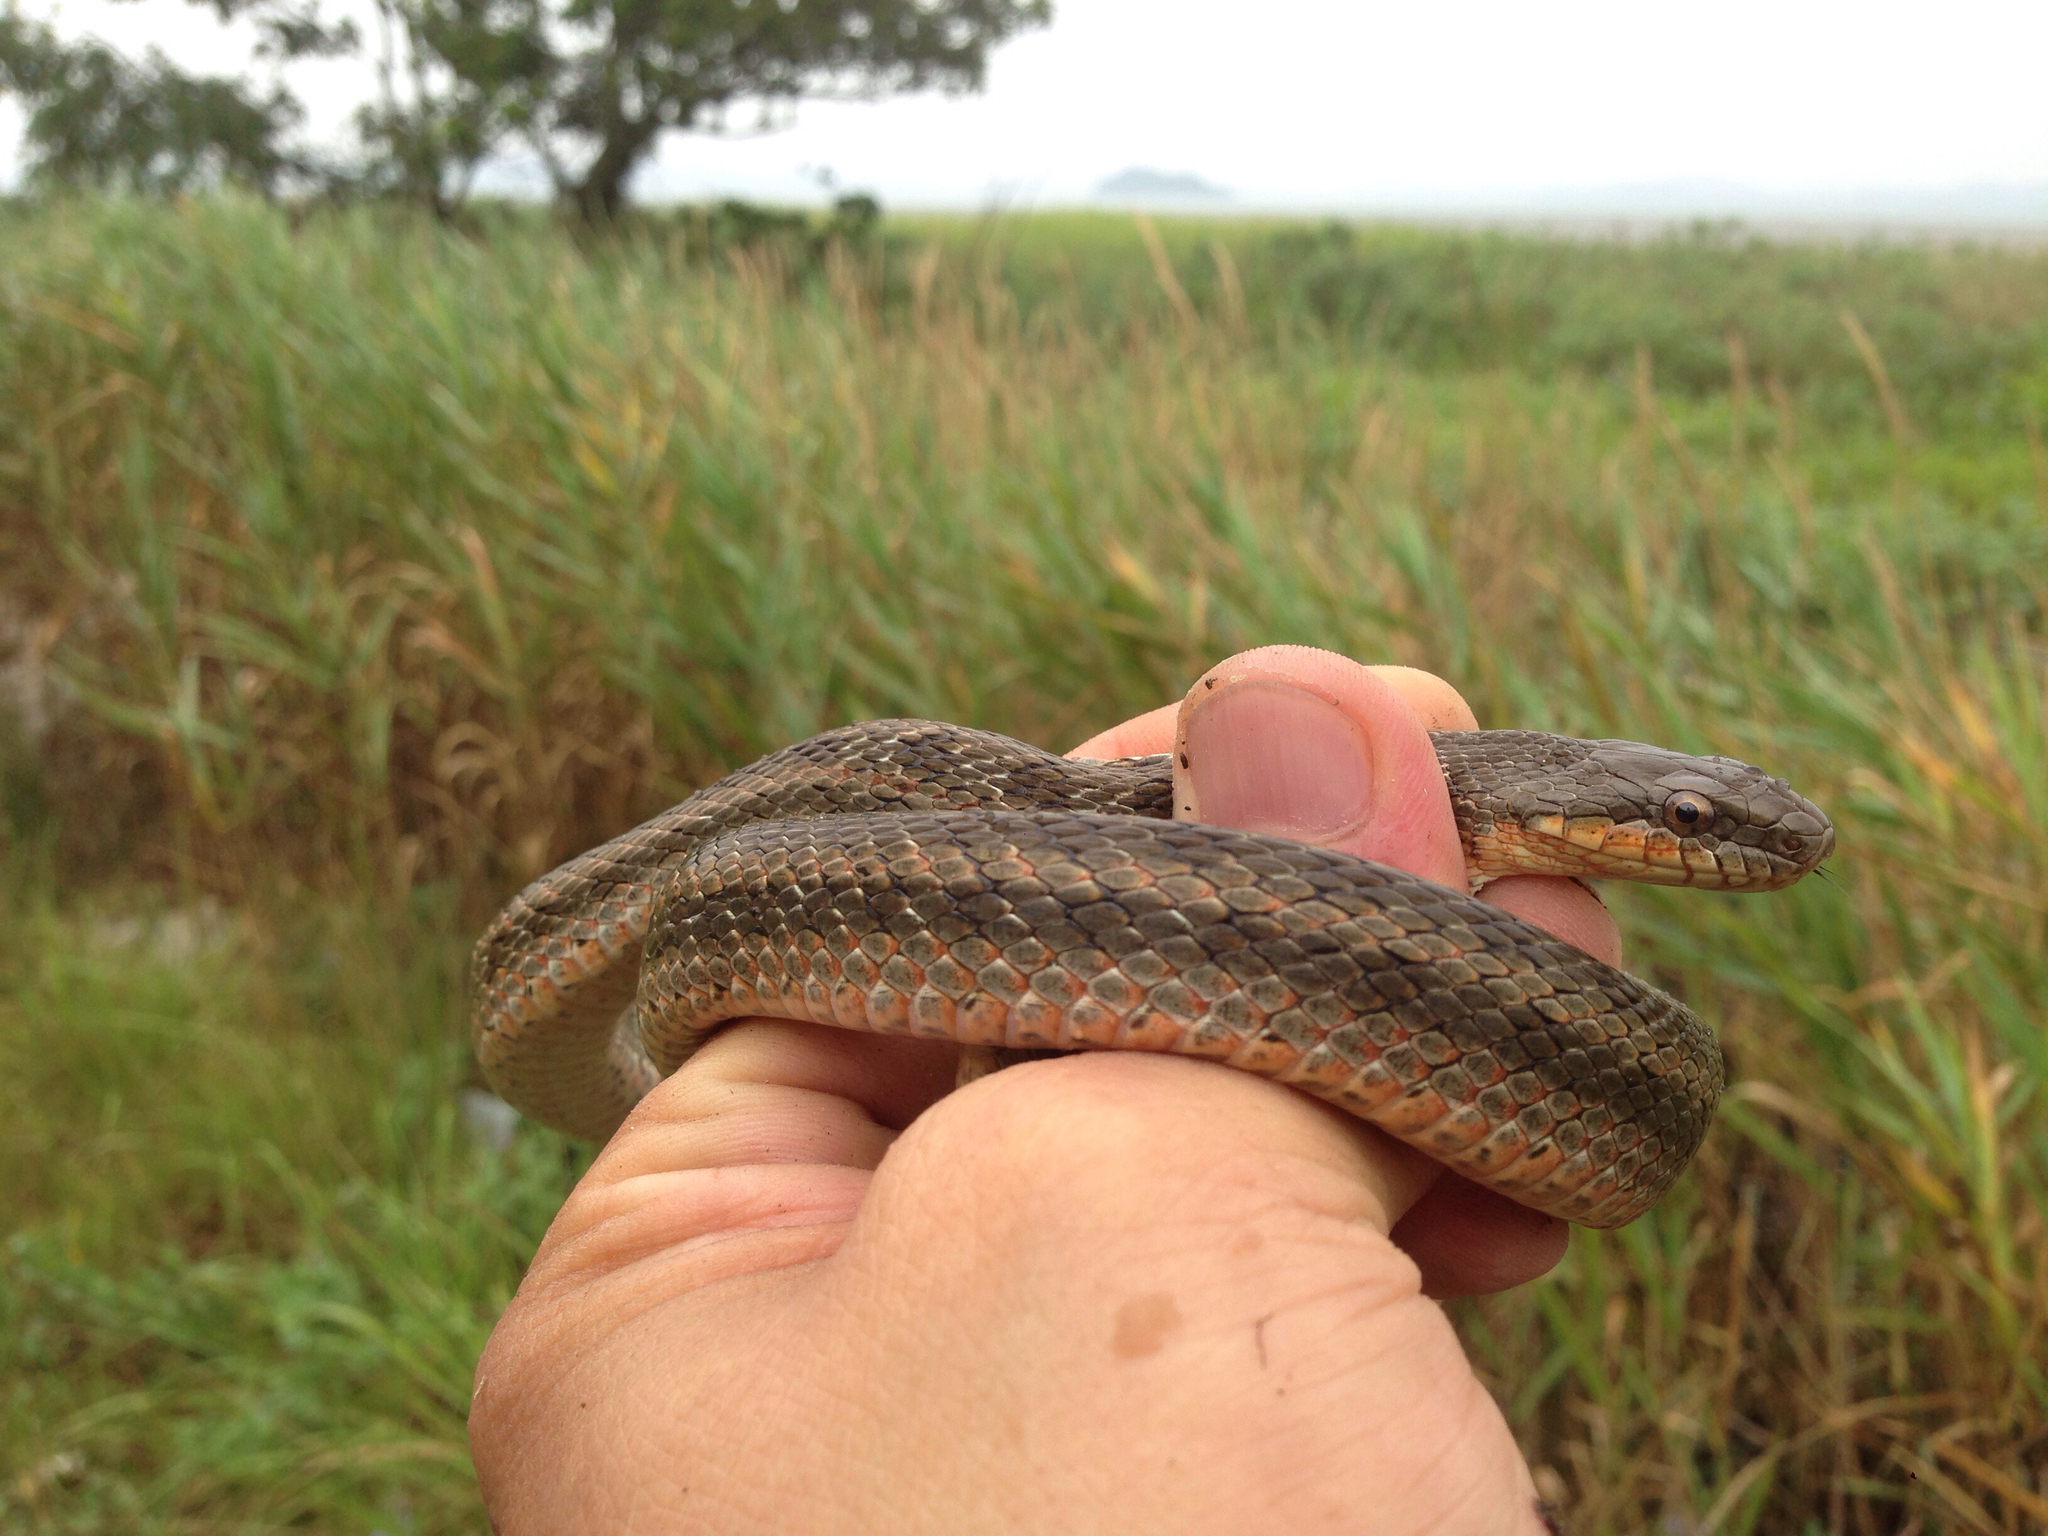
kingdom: Animalia
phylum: Chordata
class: Squamata
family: Colubridae
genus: Elaphe
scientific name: Elaphe dione
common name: Dione ratsnake
